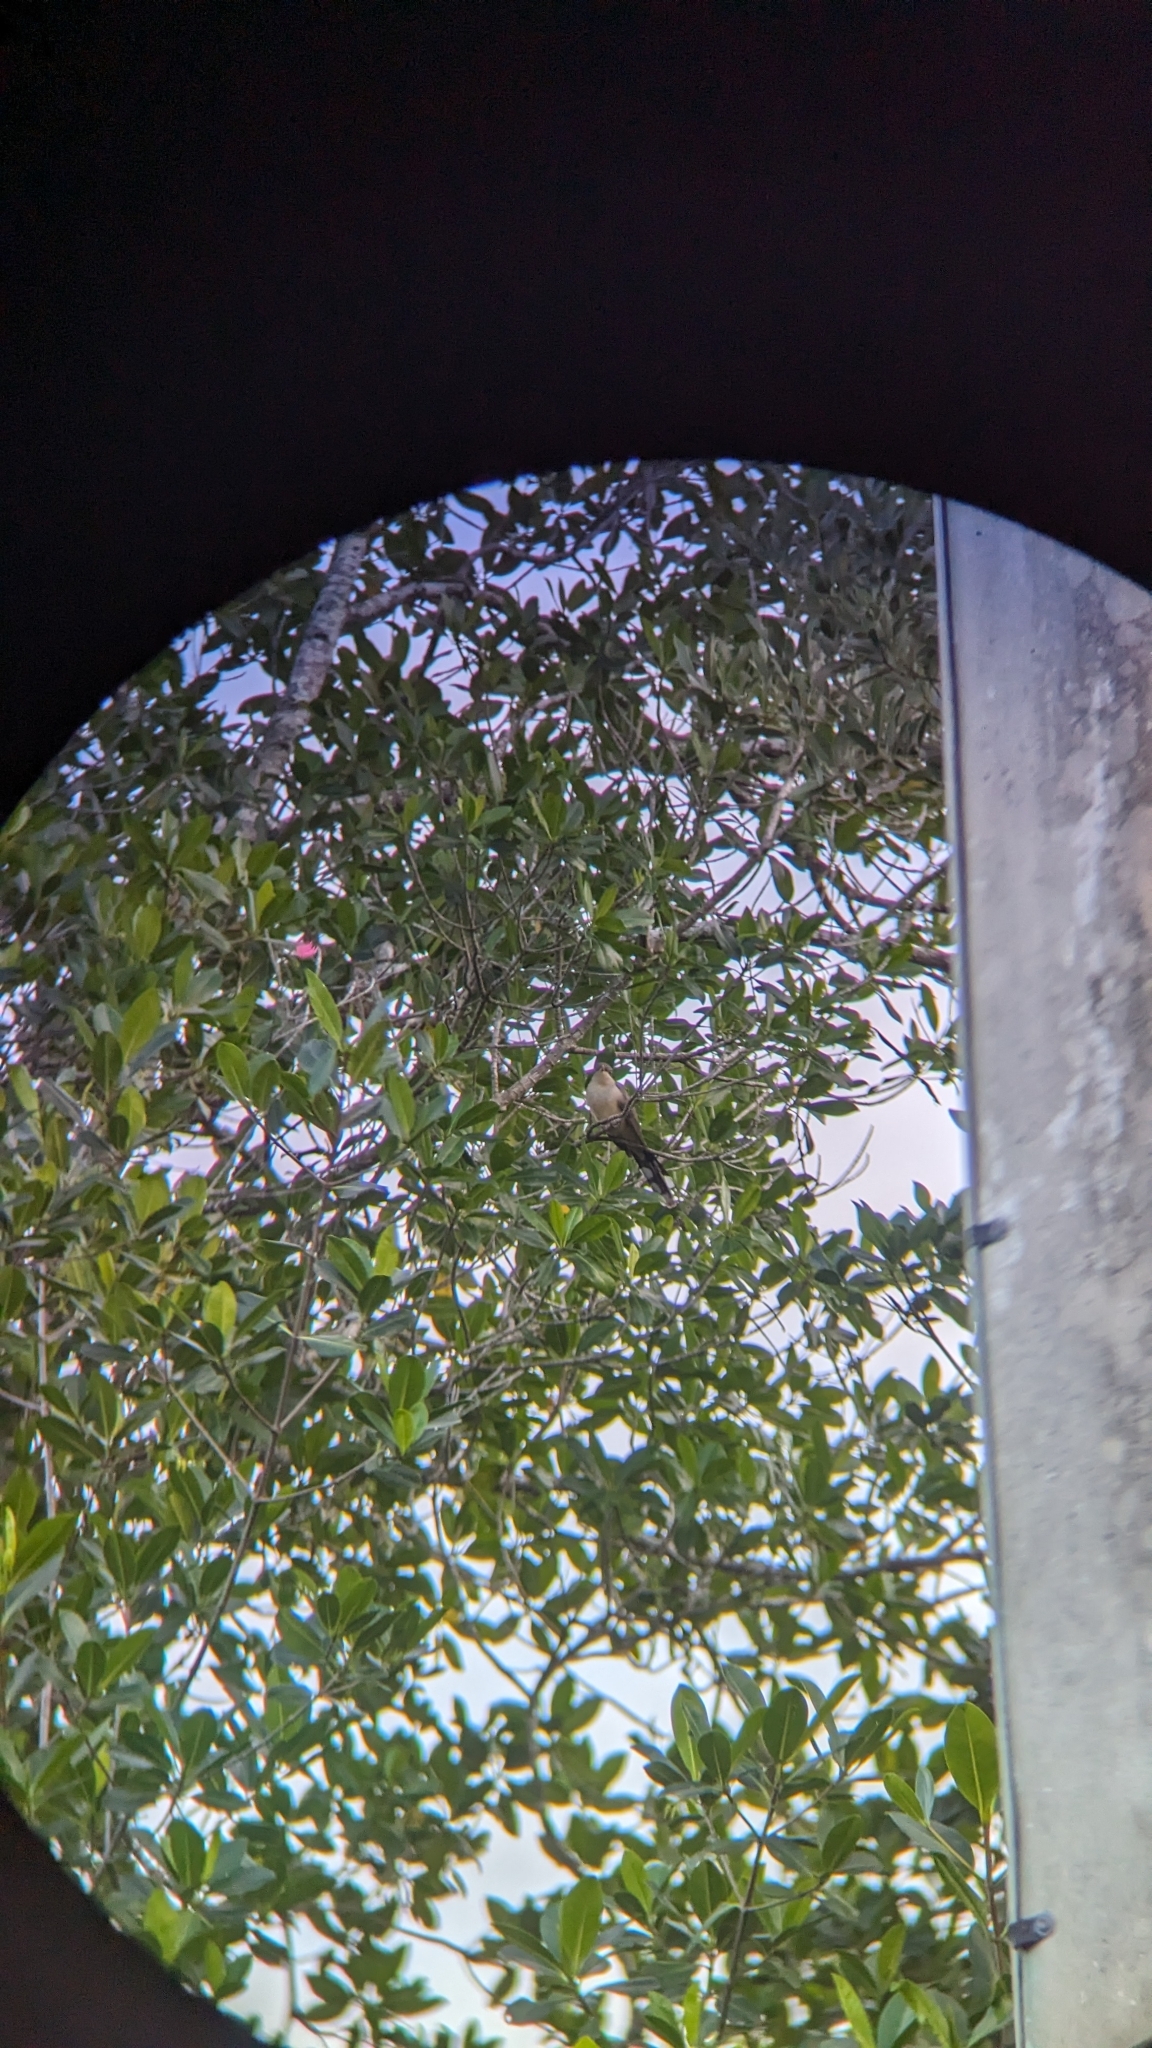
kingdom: Animalia
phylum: Chordata
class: Aves
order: Cuculiformes
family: Cuculidae
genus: Coccyzus
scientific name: Coccyzus minor
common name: Mangrove cuckoo
